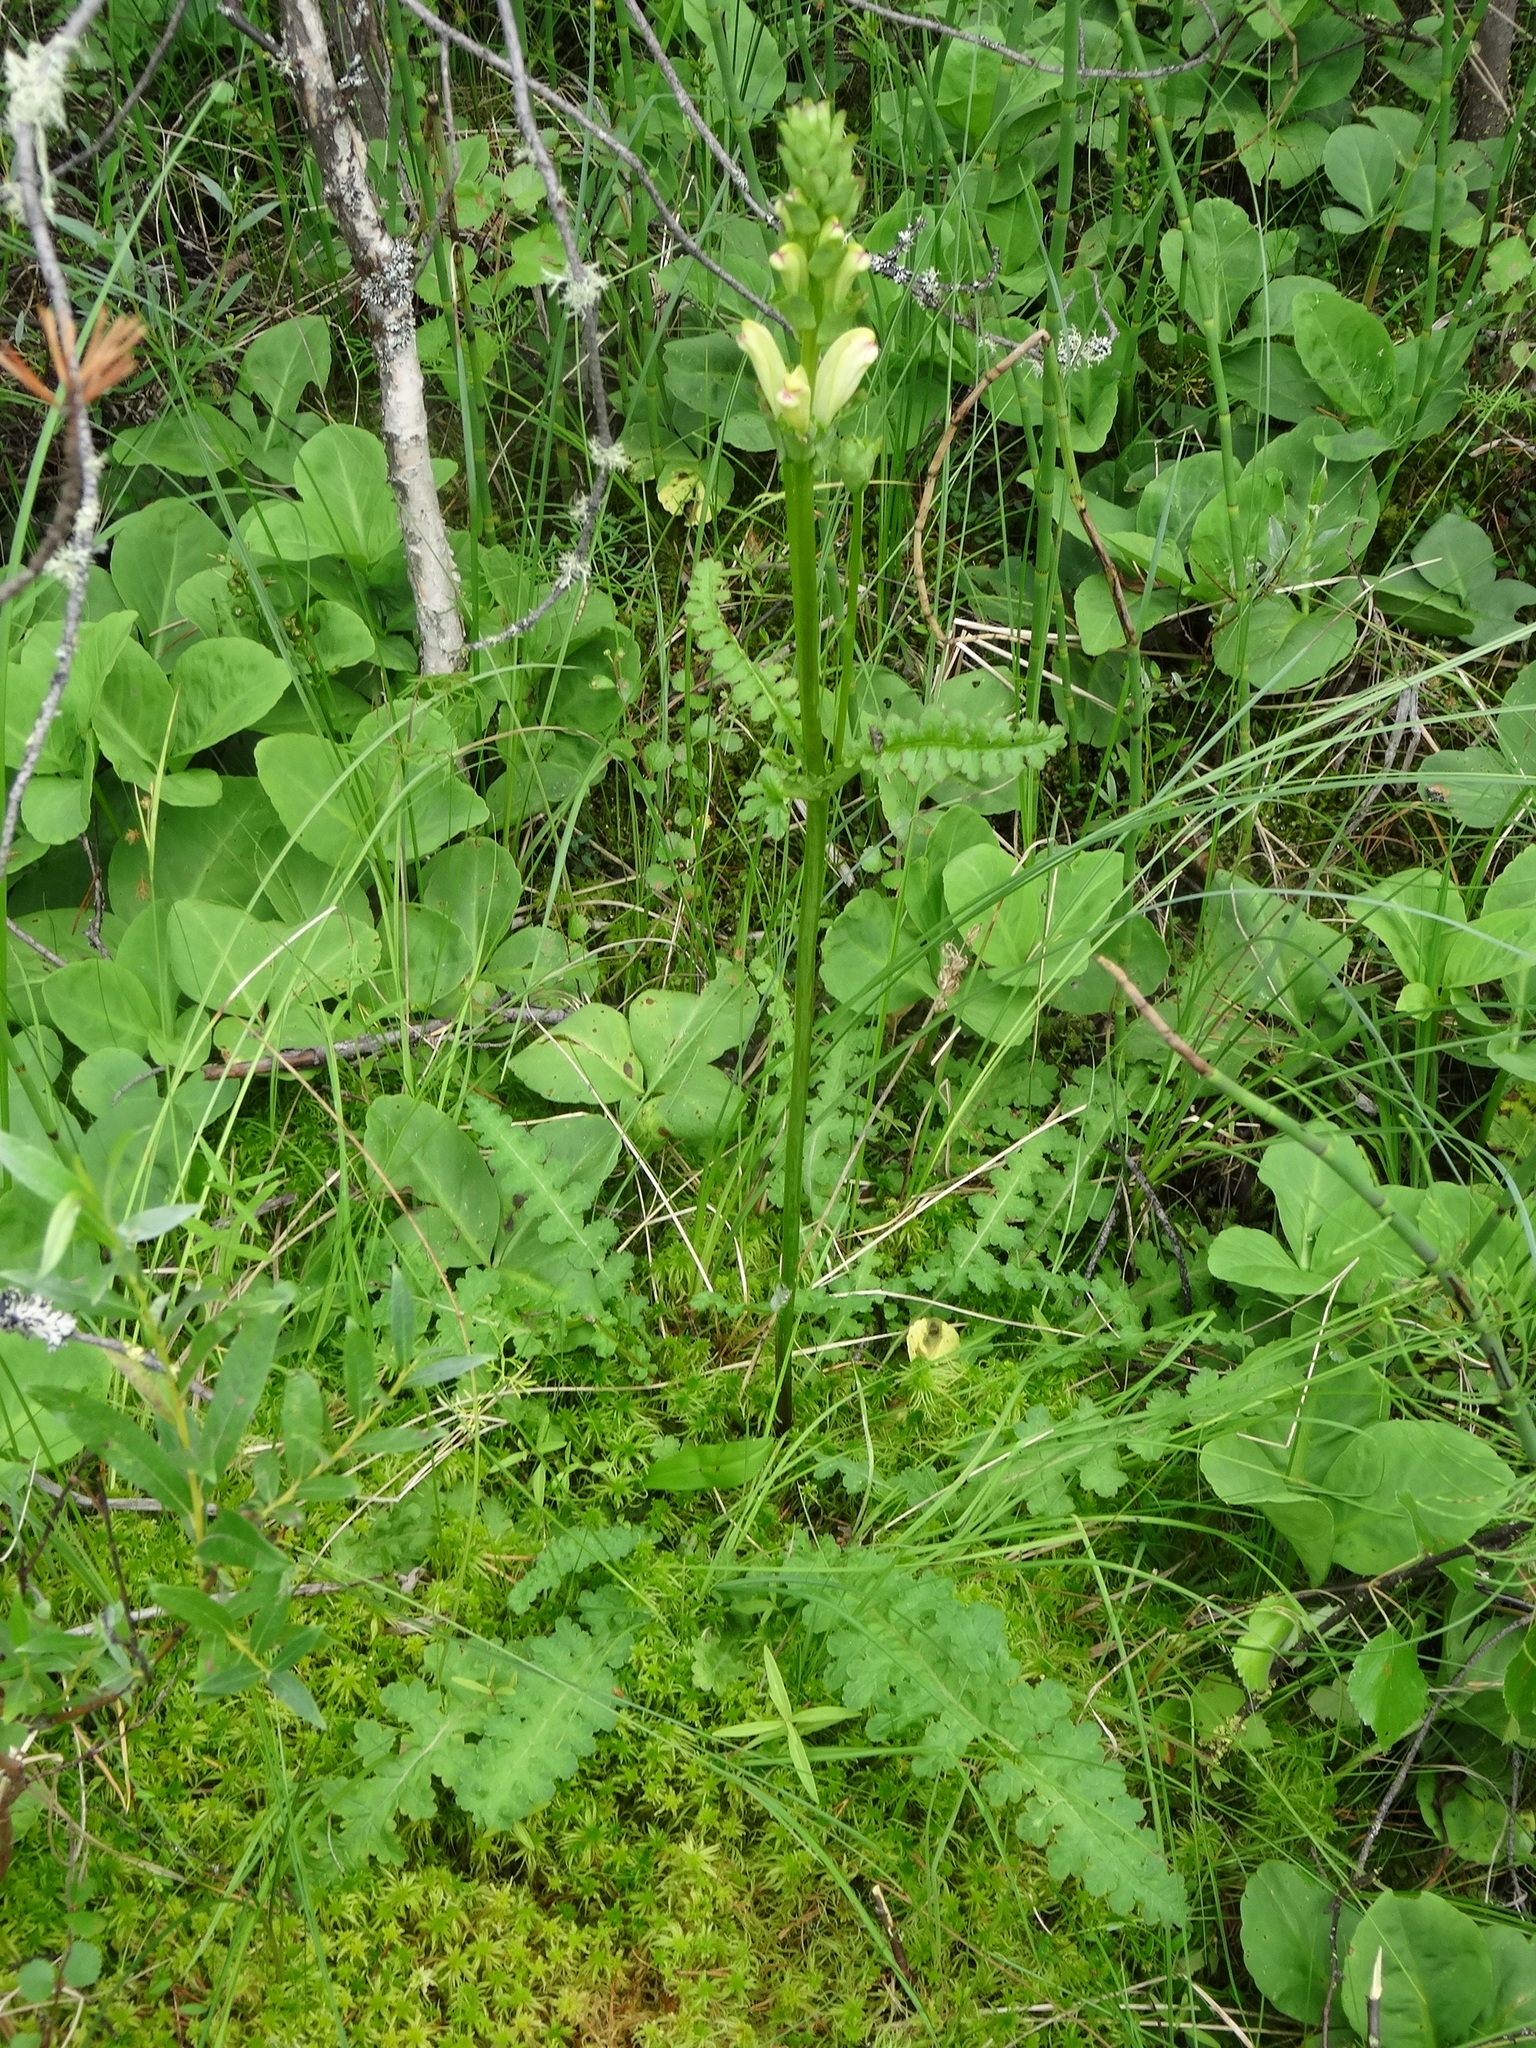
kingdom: Plantae
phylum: Tracheophyta
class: Magnoliopsida
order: Lamiales
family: Orobanchaceae
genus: Pedicularis
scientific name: Pedicularis sceptrum-carolinum
